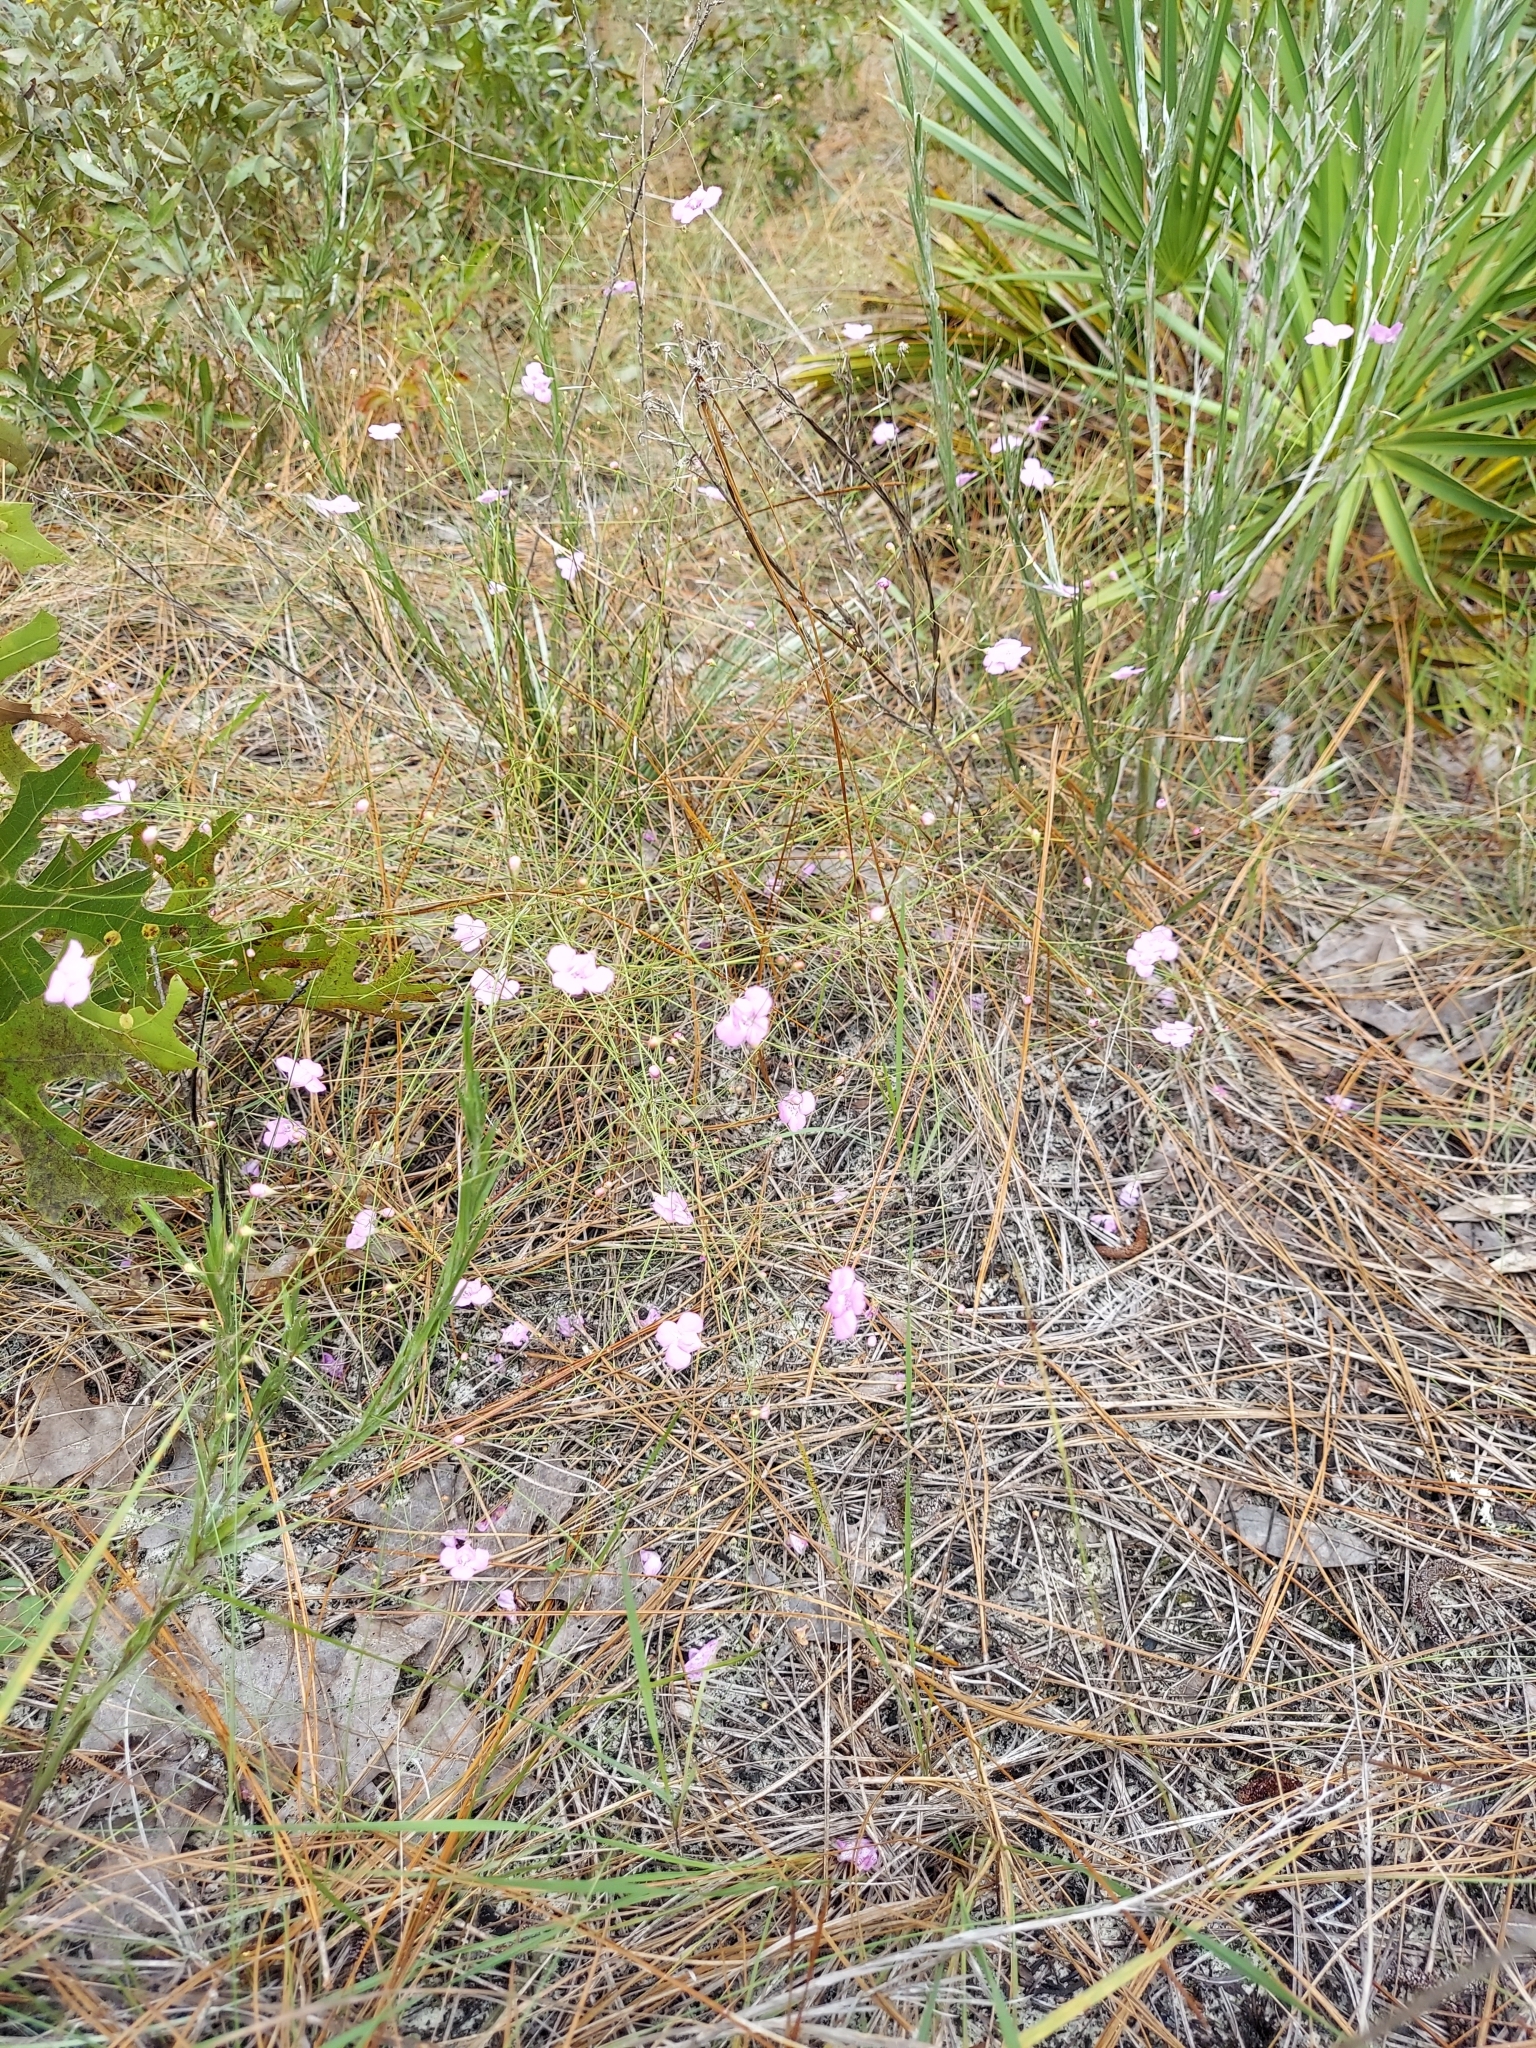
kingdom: Plantae
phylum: Tracheophyta
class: Magnoliopsida
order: Lamiales
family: Orobanchaceae
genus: Agalinis
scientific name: Agalinis divaricata
